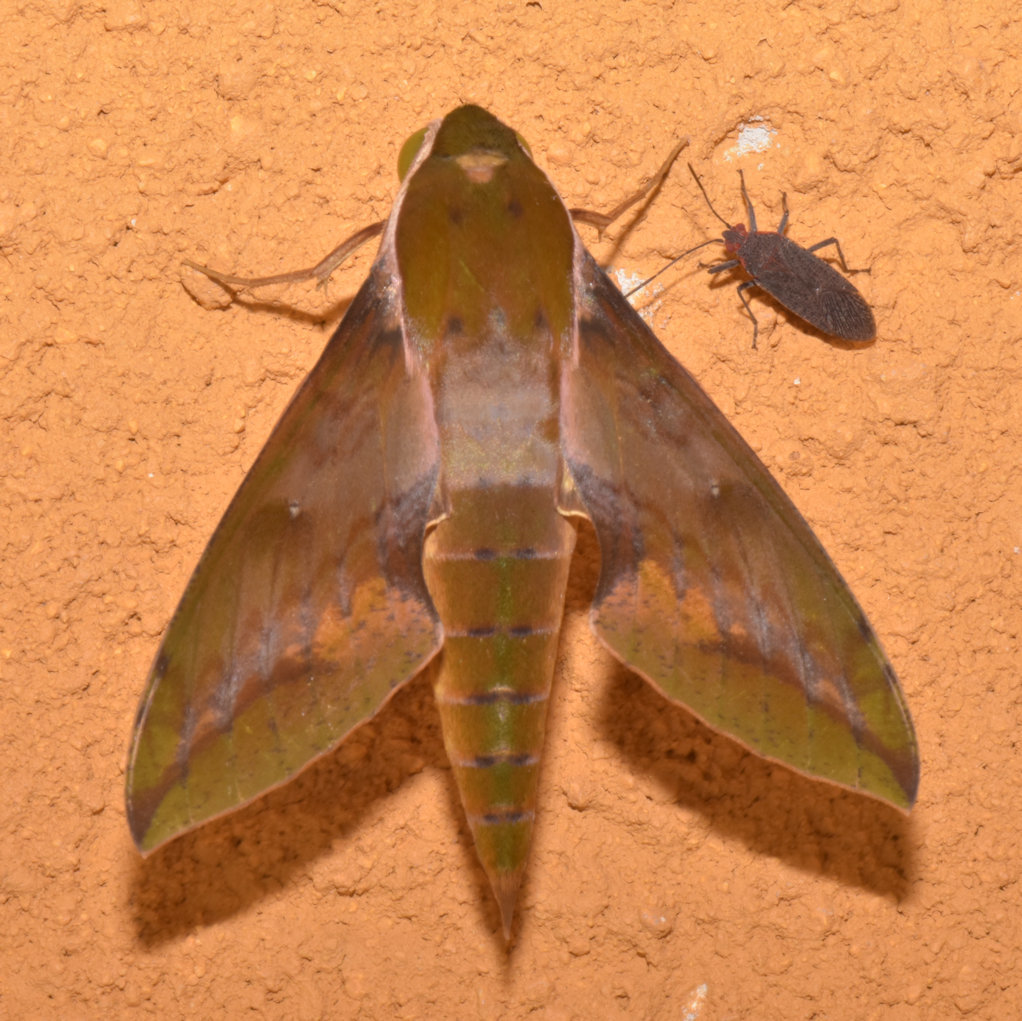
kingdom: Animalia
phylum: Arthropoda
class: Insecta
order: Lepidoptera
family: Sphingidae
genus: Xylophanes
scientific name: Xylophanes chiron
